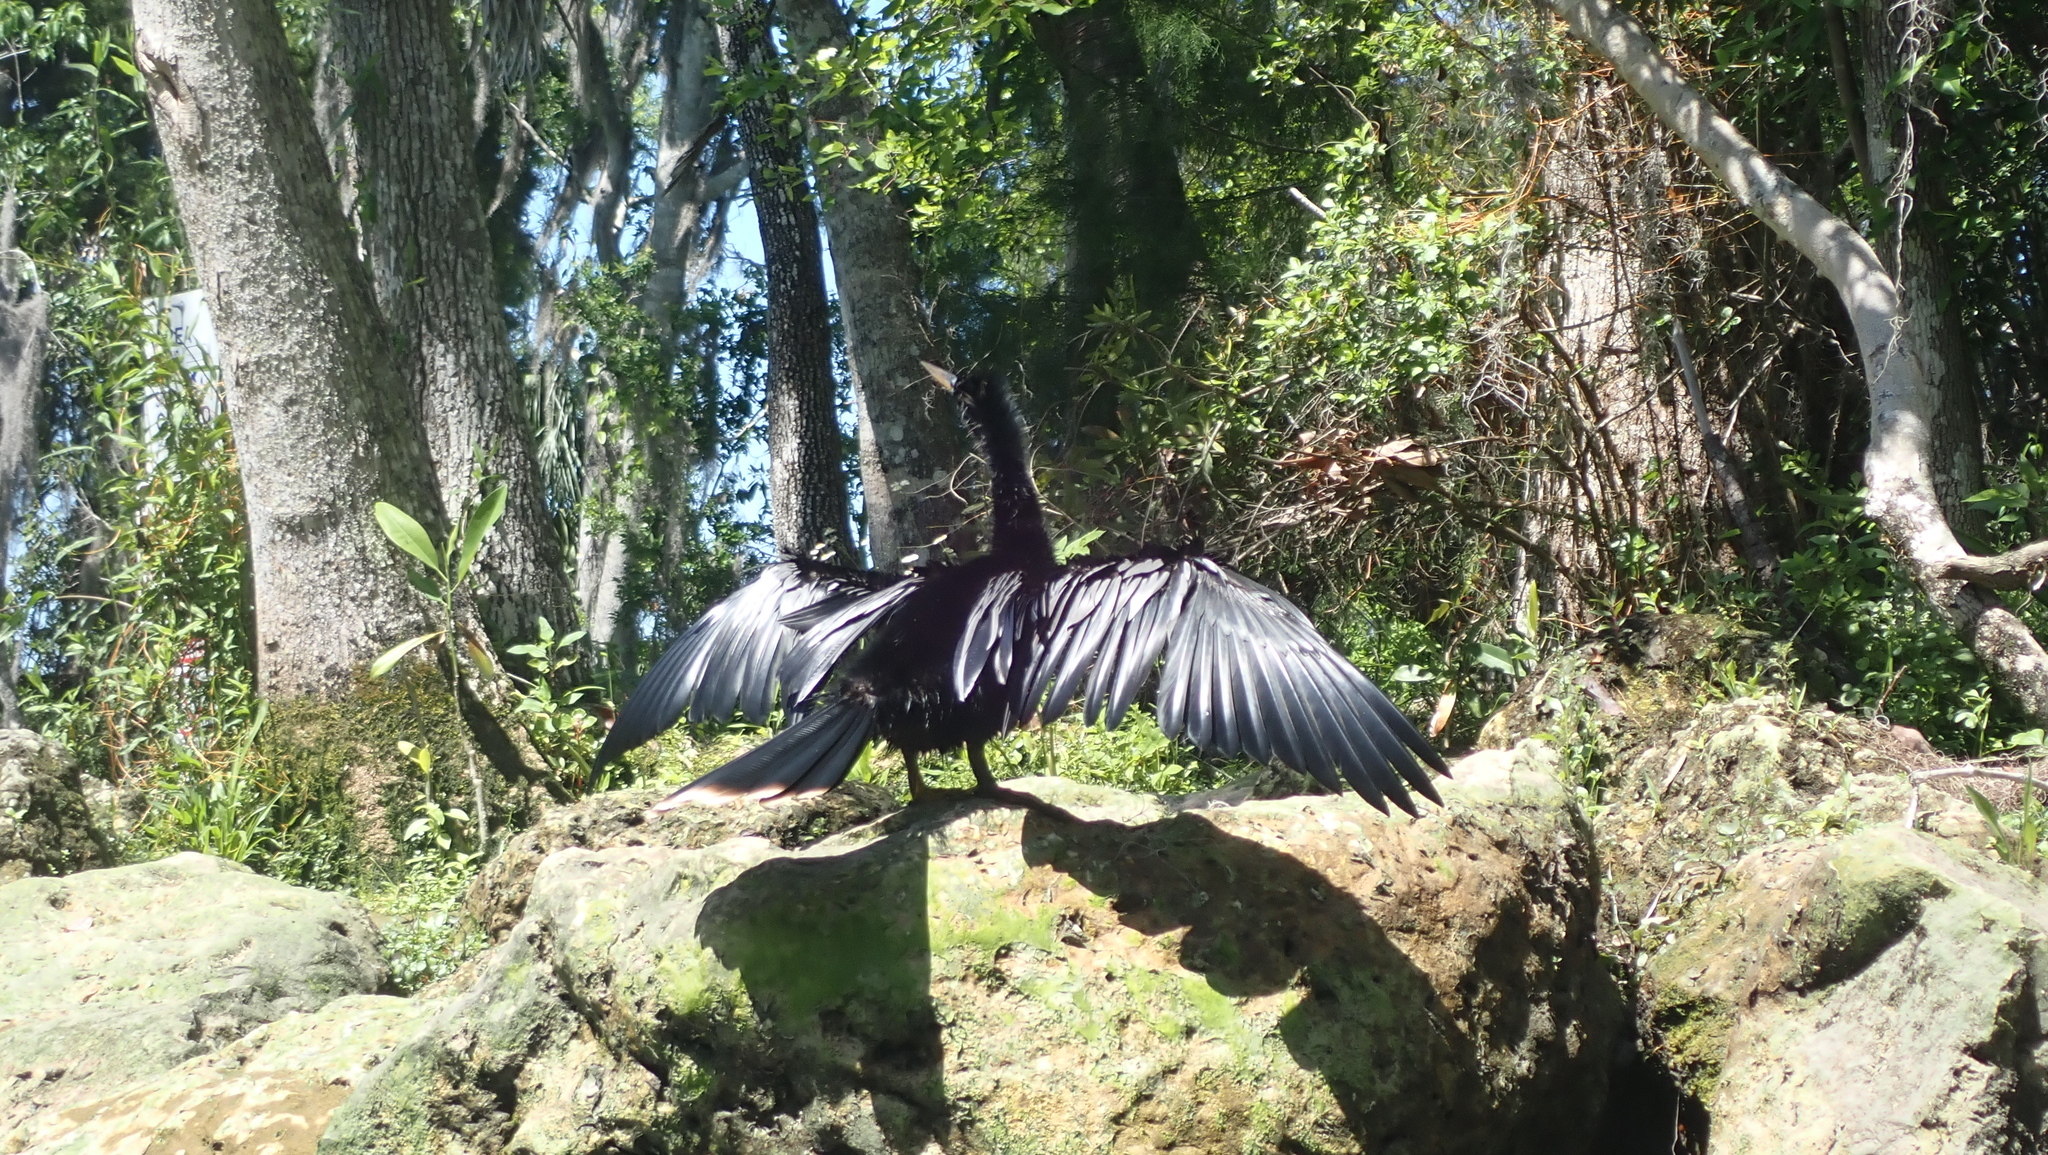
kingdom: Animalia
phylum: Chordata
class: Aves
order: Suliformes
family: Anhingidae
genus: Anhinga
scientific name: Anhinga anhinga
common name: Anhinga
